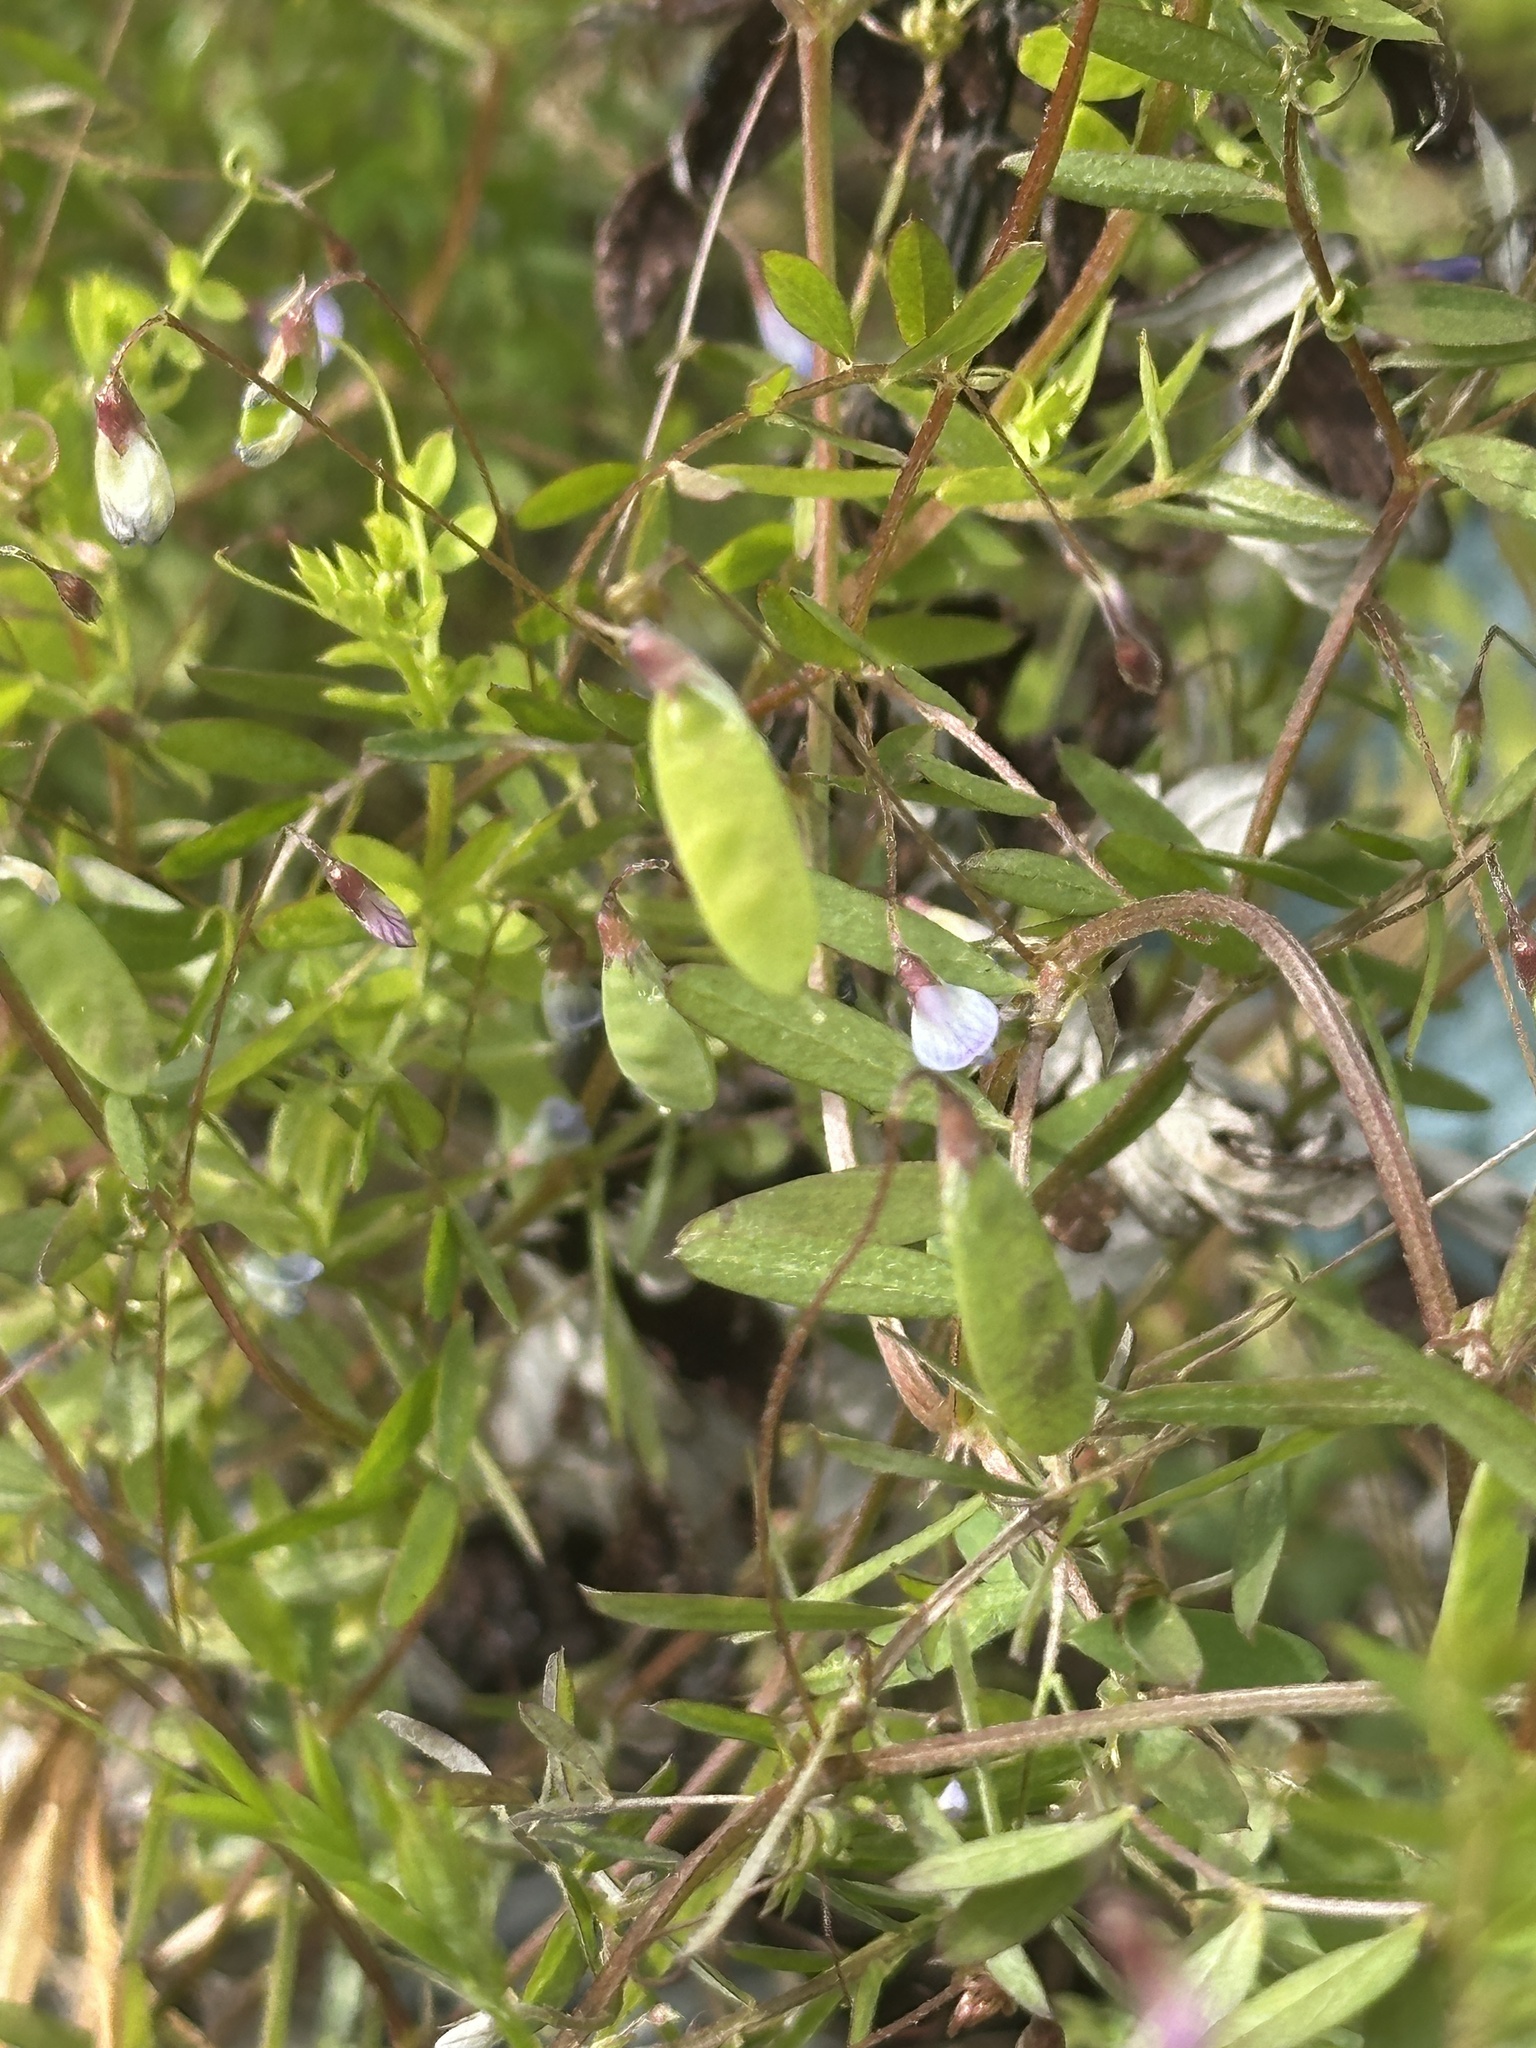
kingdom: Plantae
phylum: Tracheophyta
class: Magnoliopsida
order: Fabales
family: Fabaceae
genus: Vicia
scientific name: Vicia tetrasperma
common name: Smooth tare
